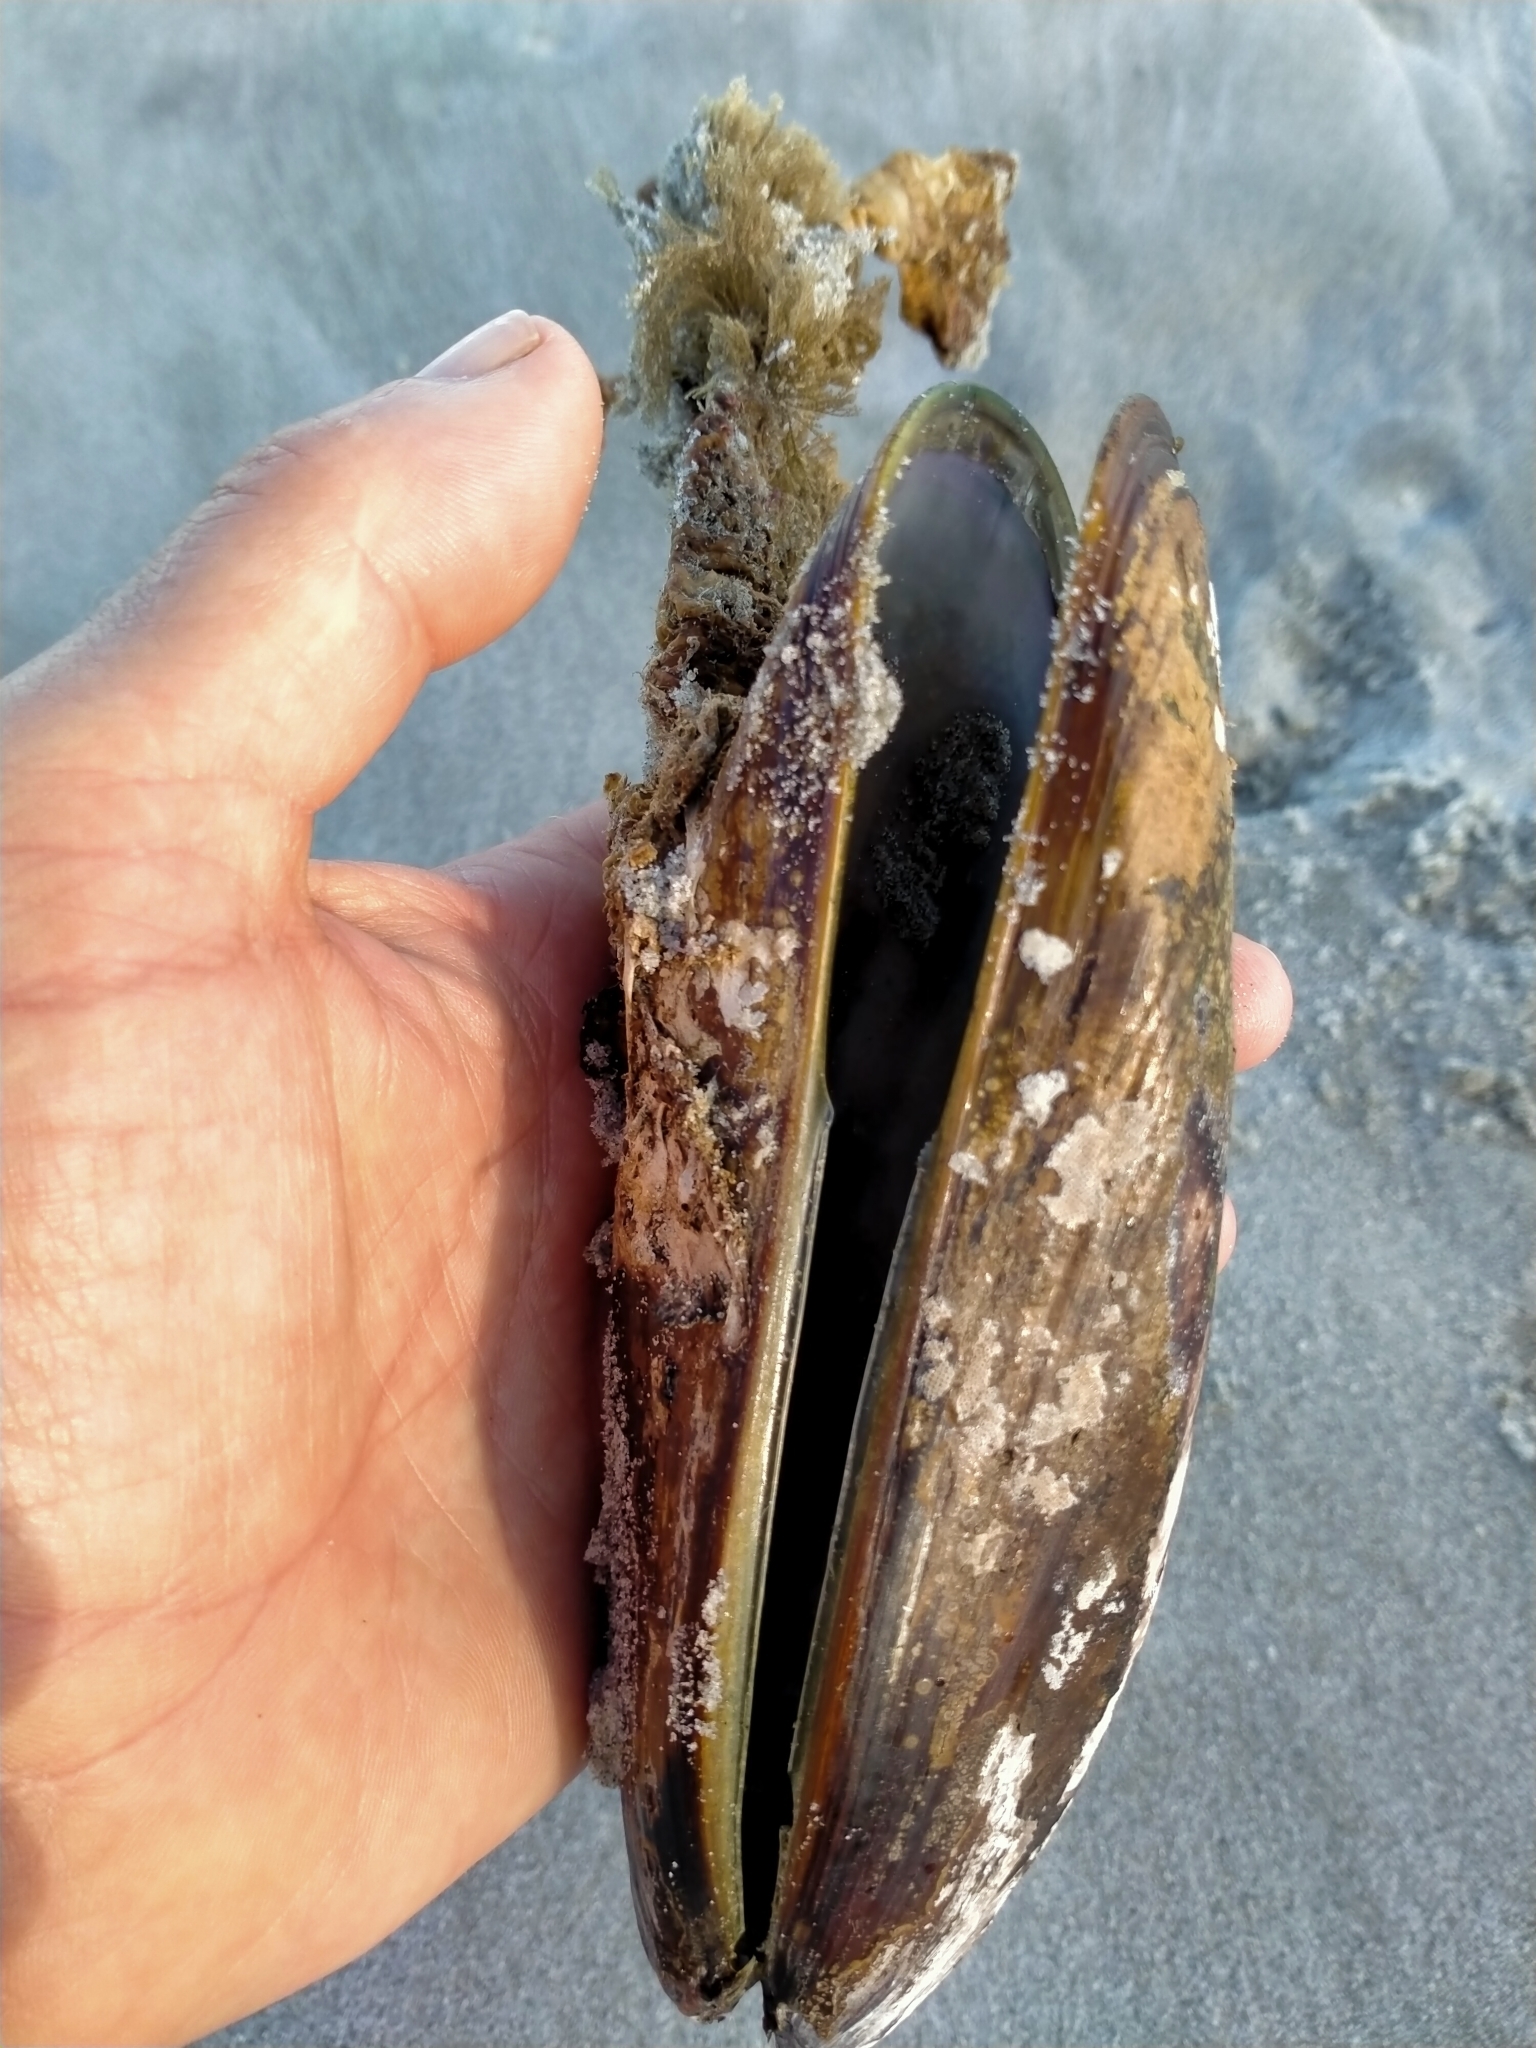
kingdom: Animalia
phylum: Mollusca
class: Bivalvia
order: Mytilida
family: Mytilidae
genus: Perna
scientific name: Perna canaliculus
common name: New zealand greenshelltm
